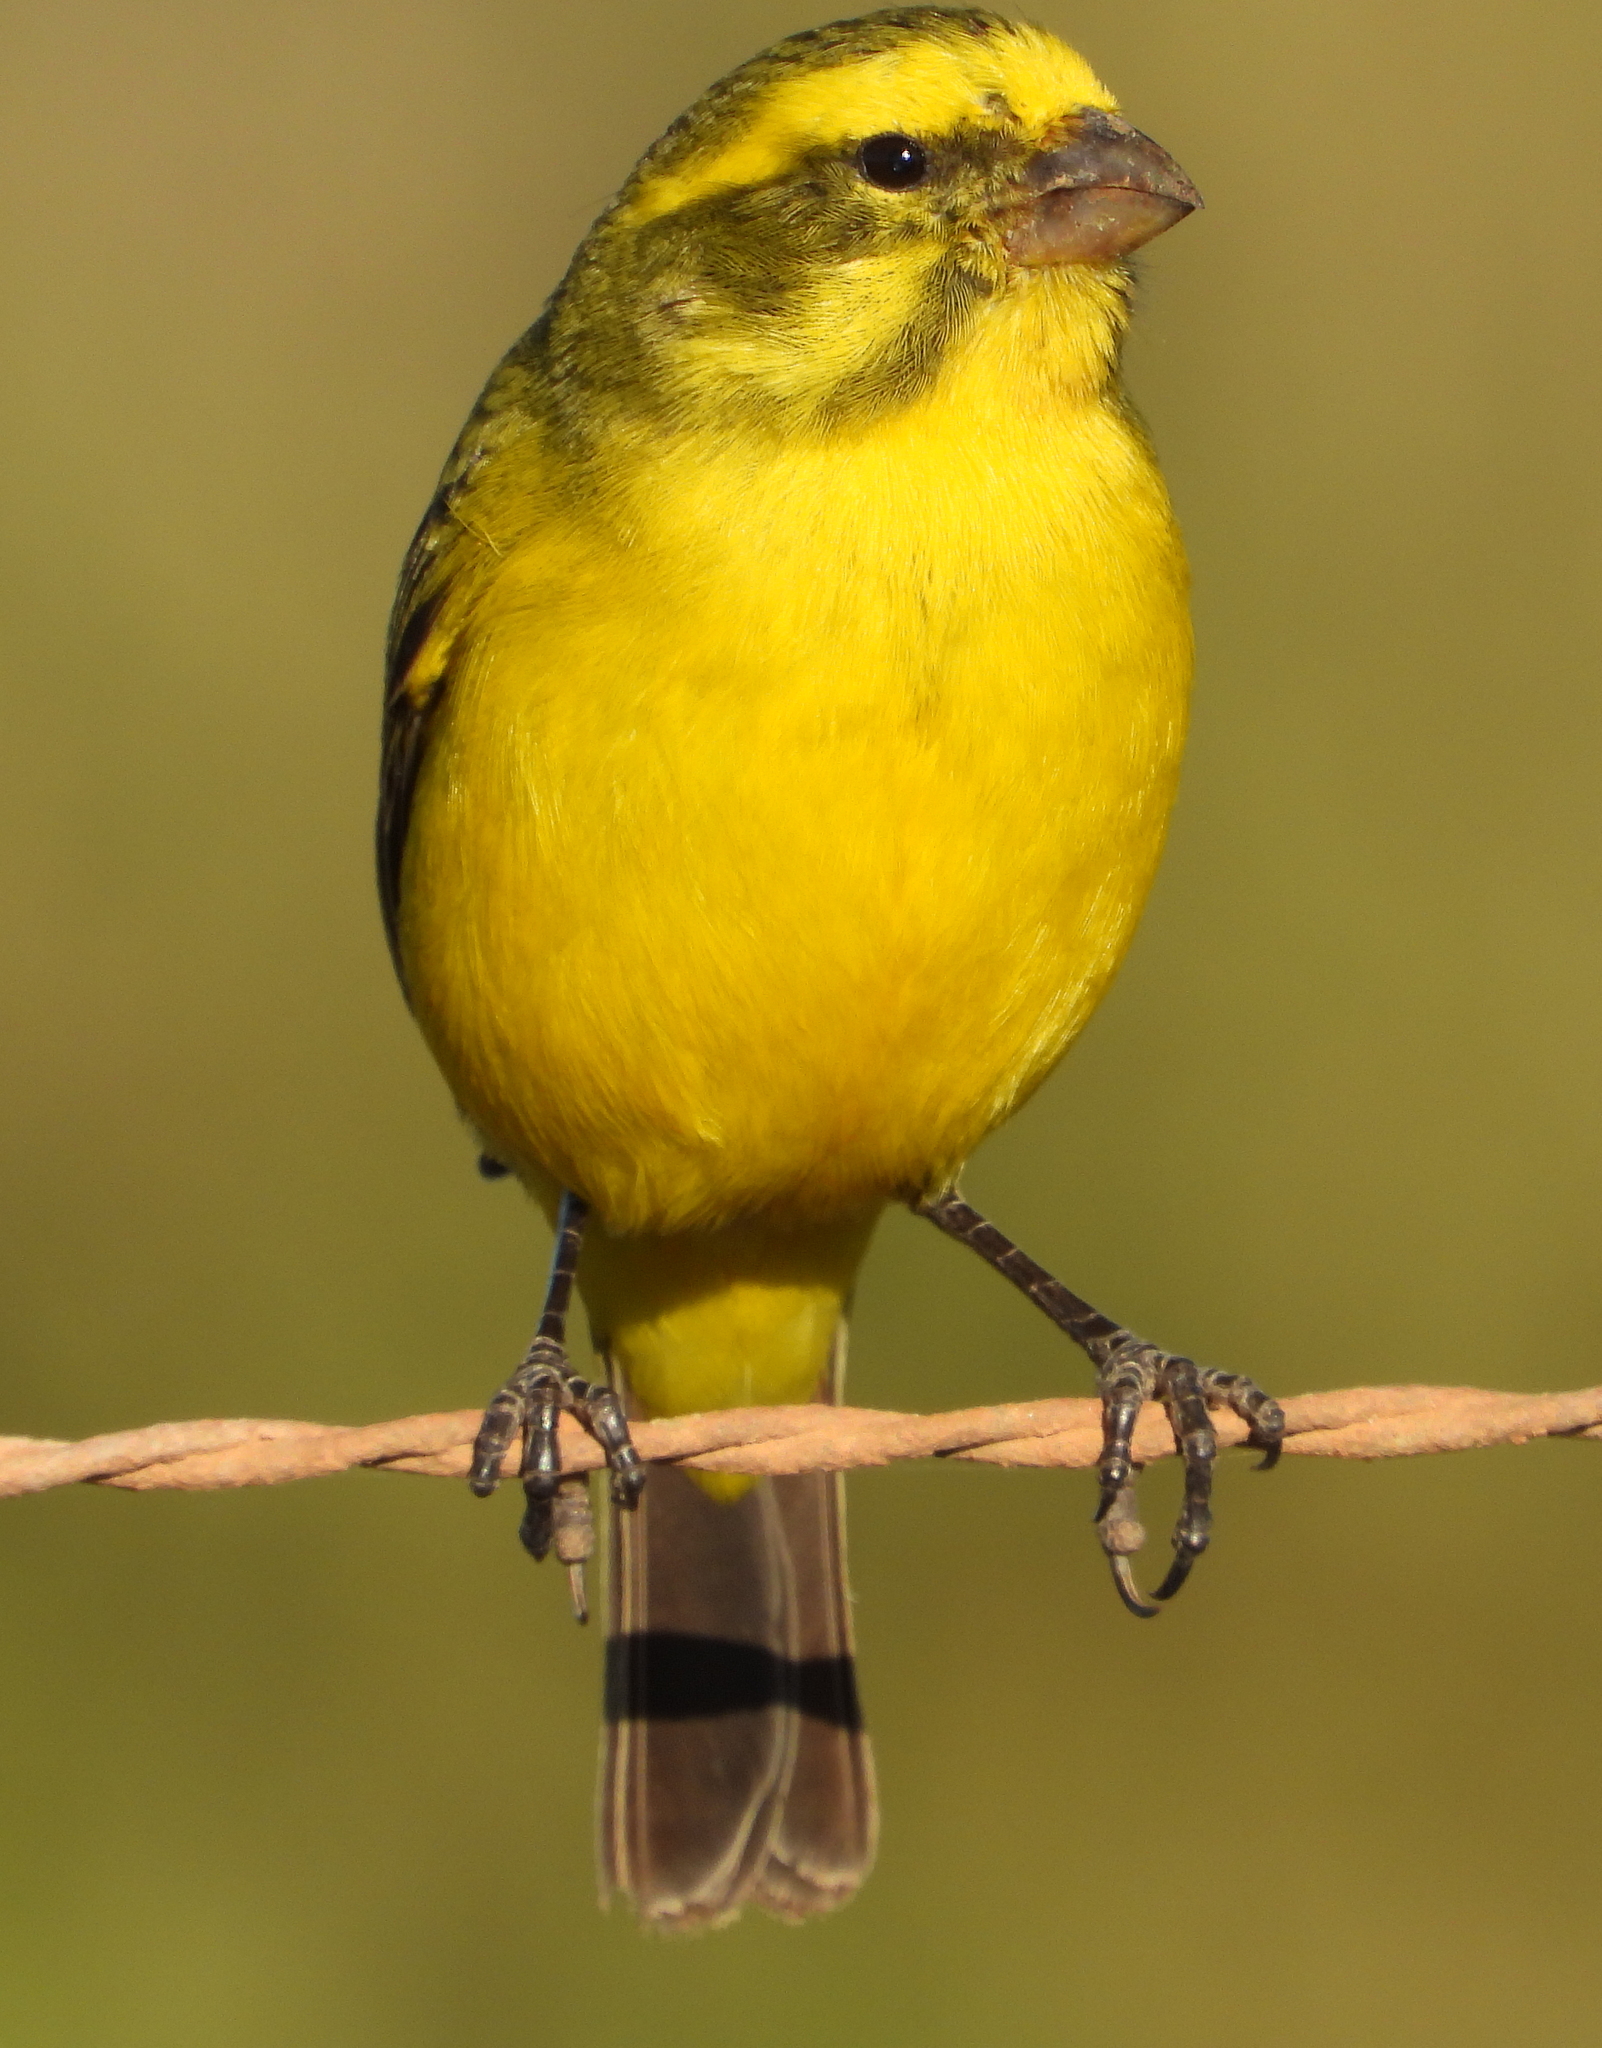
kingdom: Animalia
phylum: Chordata
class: Aves
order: Passeriformes
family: Fringillidae
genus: Crithagra
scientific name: Crithagra flaviventris
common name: Yellow canary
